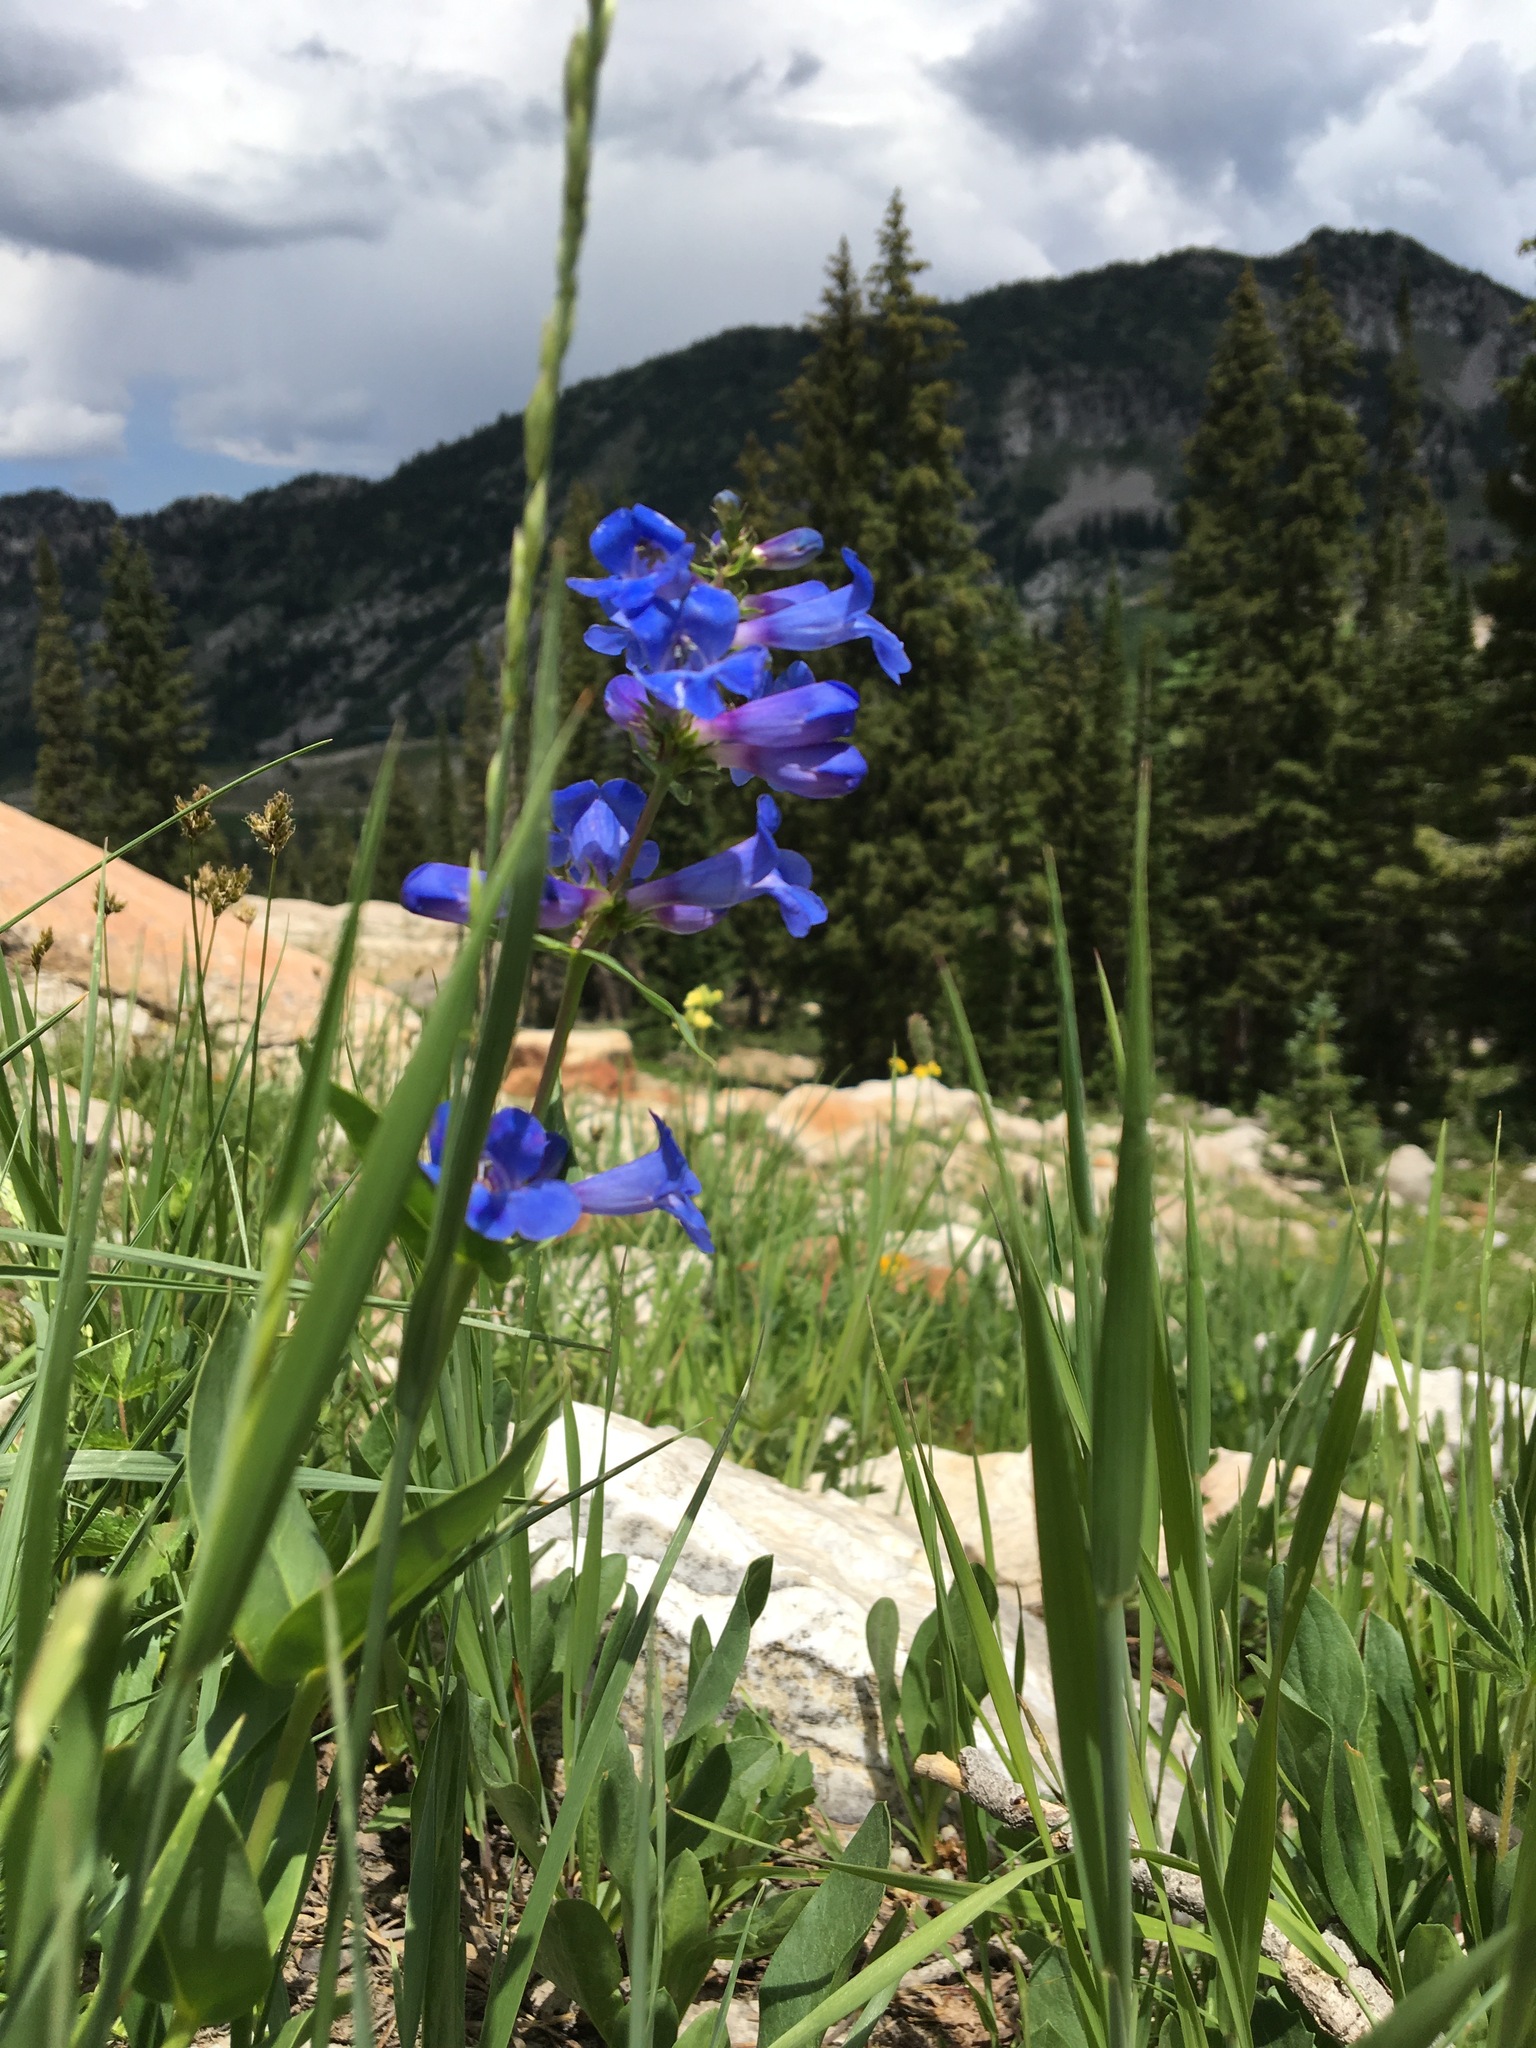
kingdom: Plantae
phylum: Tracheophyta
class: Magnoliopsida
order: Lamiales
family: Plantaginaceae
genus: Penstemon
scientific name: Penstemon cyananthus
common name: Wasatch penstemon
